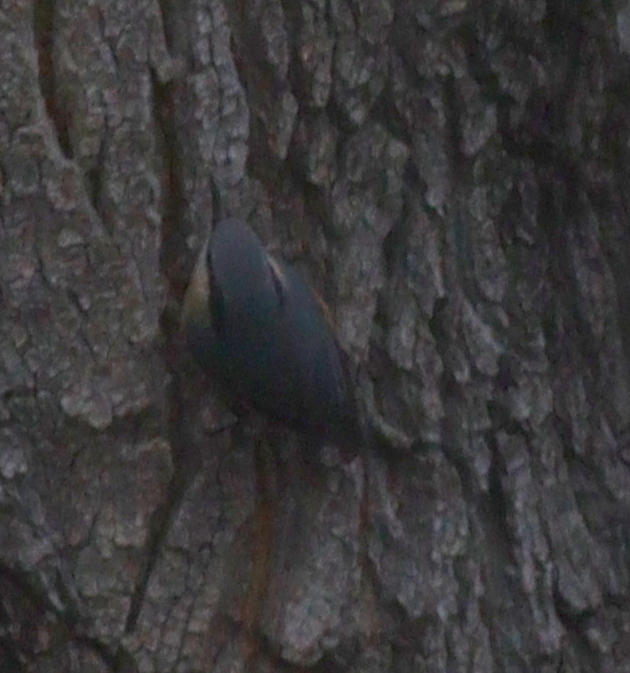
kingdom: Animalia
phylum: Chordata
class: Aves
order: Passeriformes
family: Sittidae
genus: Sitta
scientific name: Sitta europaea
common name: Eurasian nuthatch
